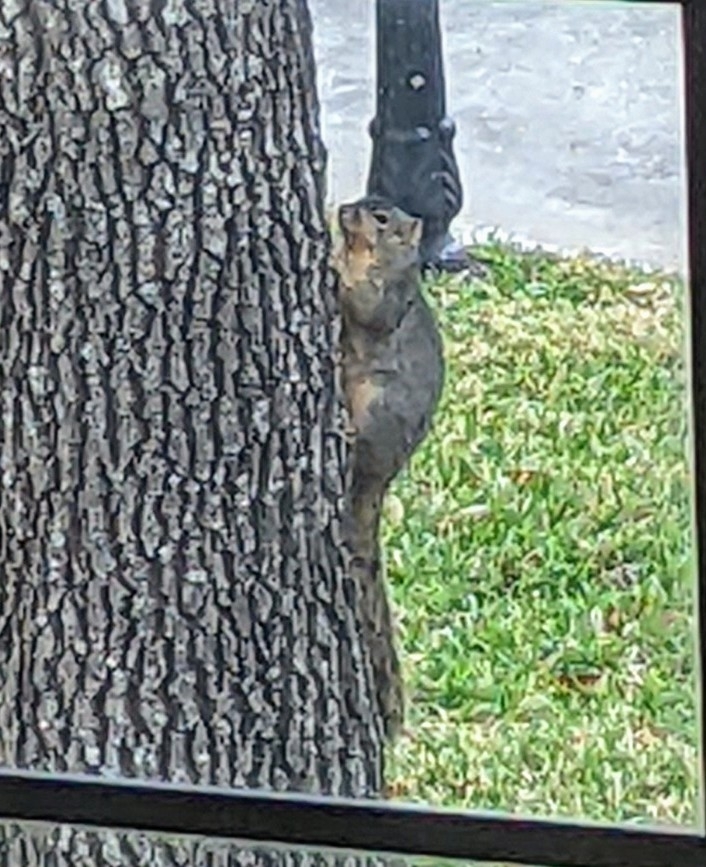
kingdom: Animalia
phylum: Chordata
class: Mammalia
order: Rodentia
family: Sciuridae
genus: Sciurus
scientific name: Sciurus niger
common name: Fox squirrel
